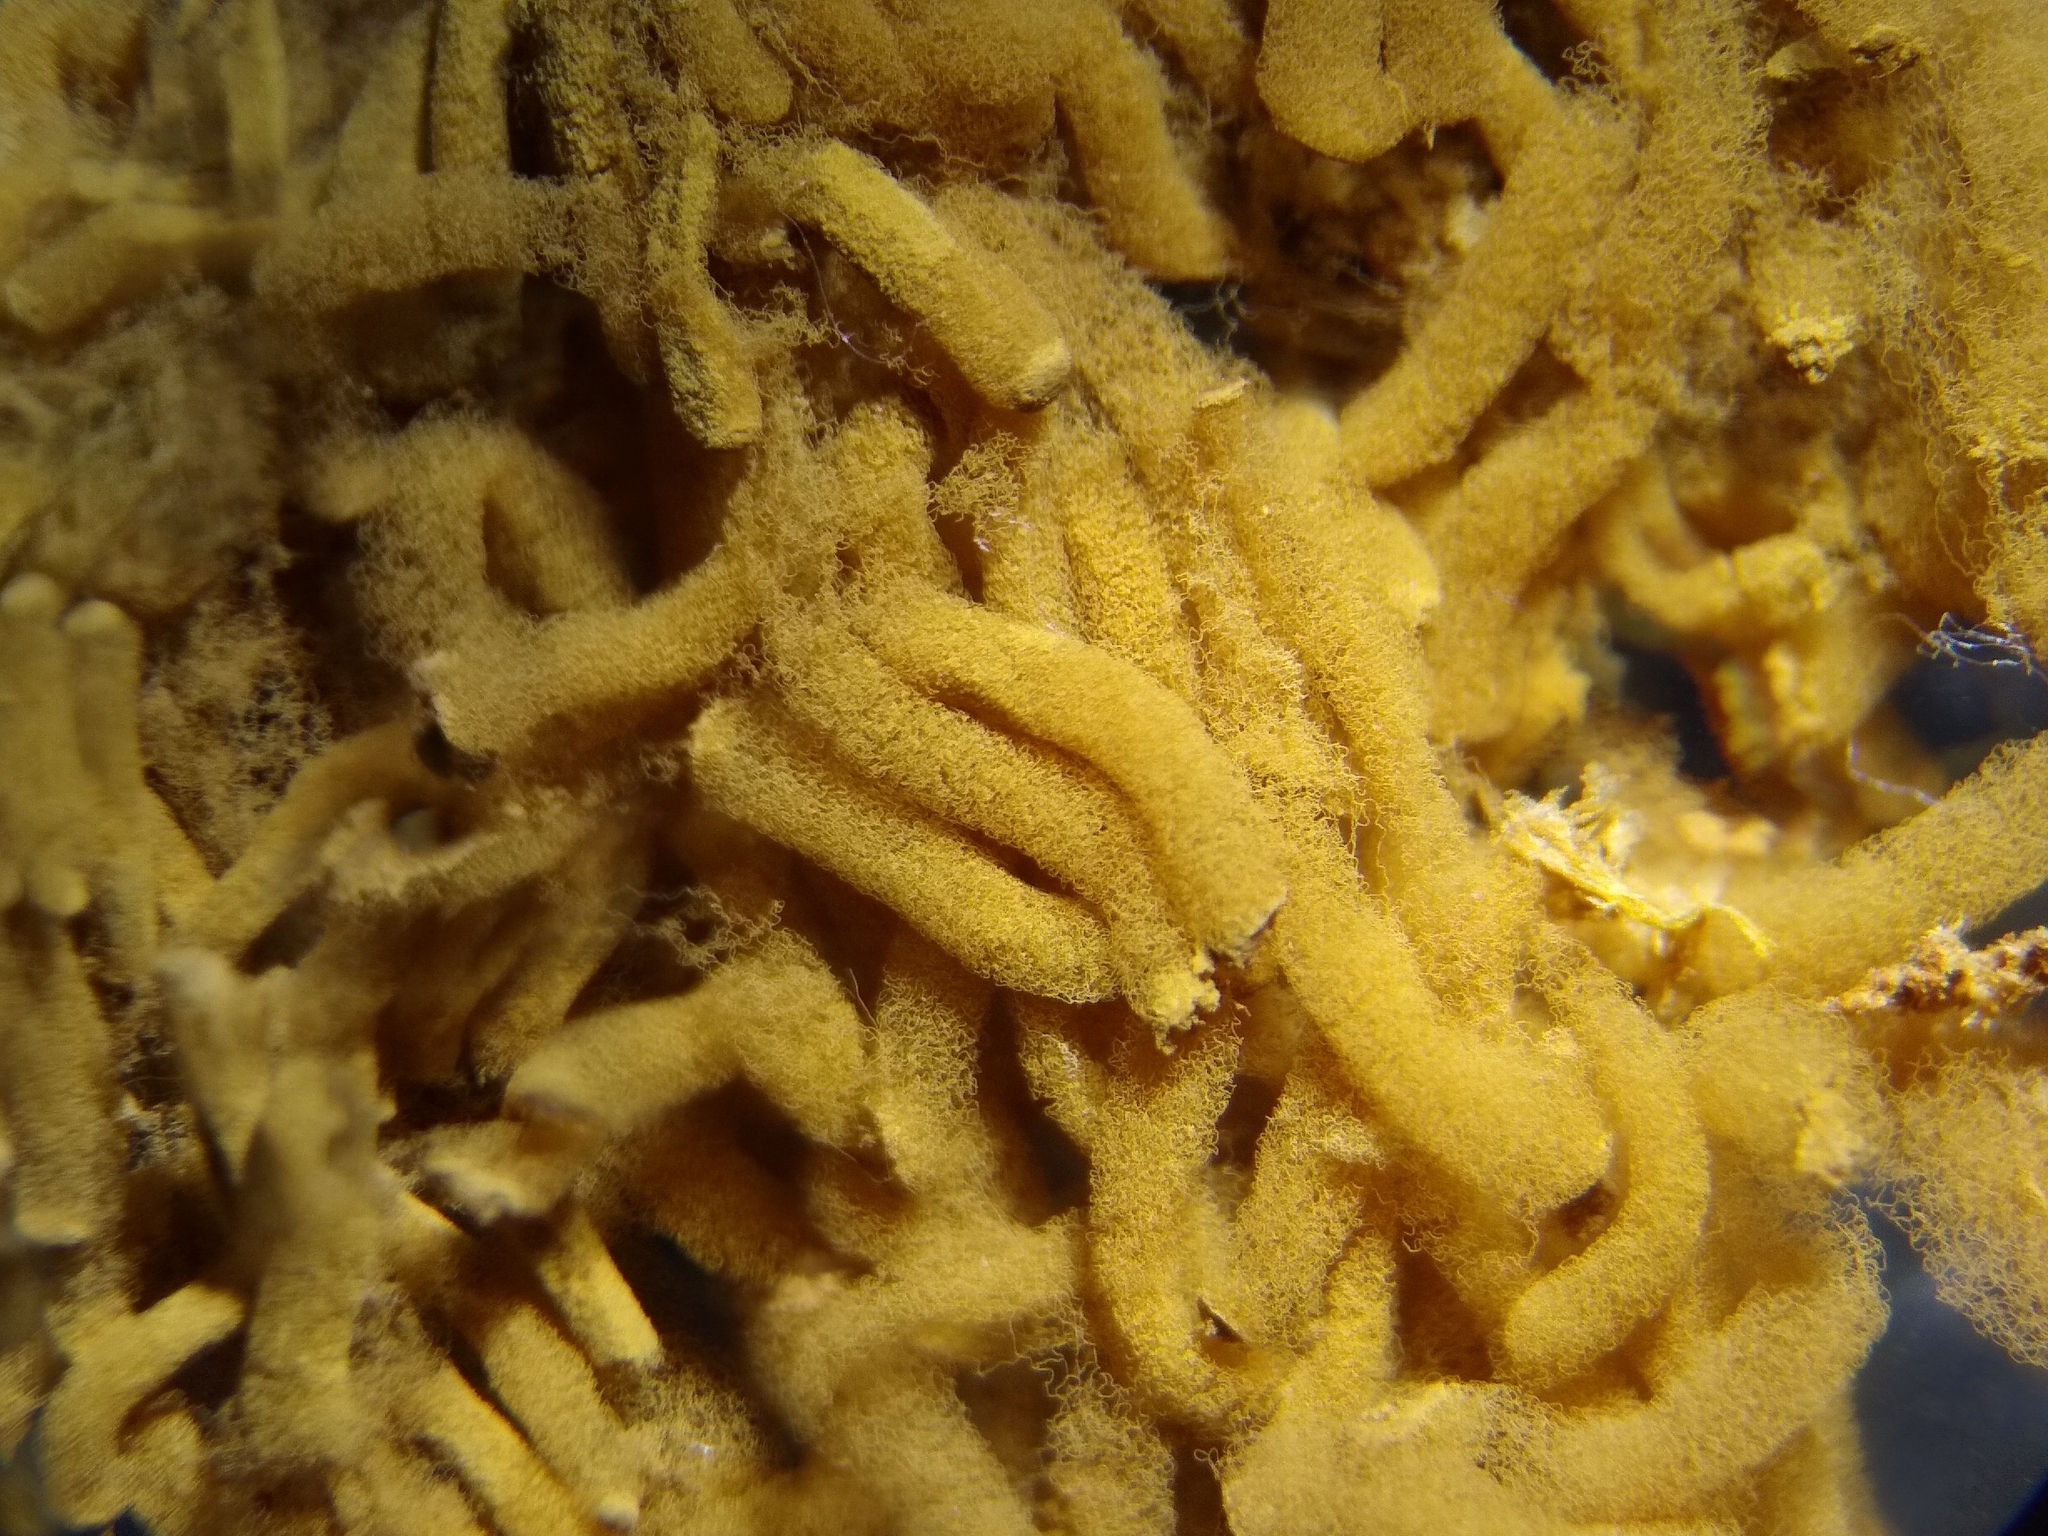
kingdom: Protozoa
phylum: Mycetozoa
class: Myxomycetes
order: Trichiales
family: Arcyriaceae
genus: Arcyria
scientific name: Arcyria obvelata
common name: Yellow carnival candy slime
